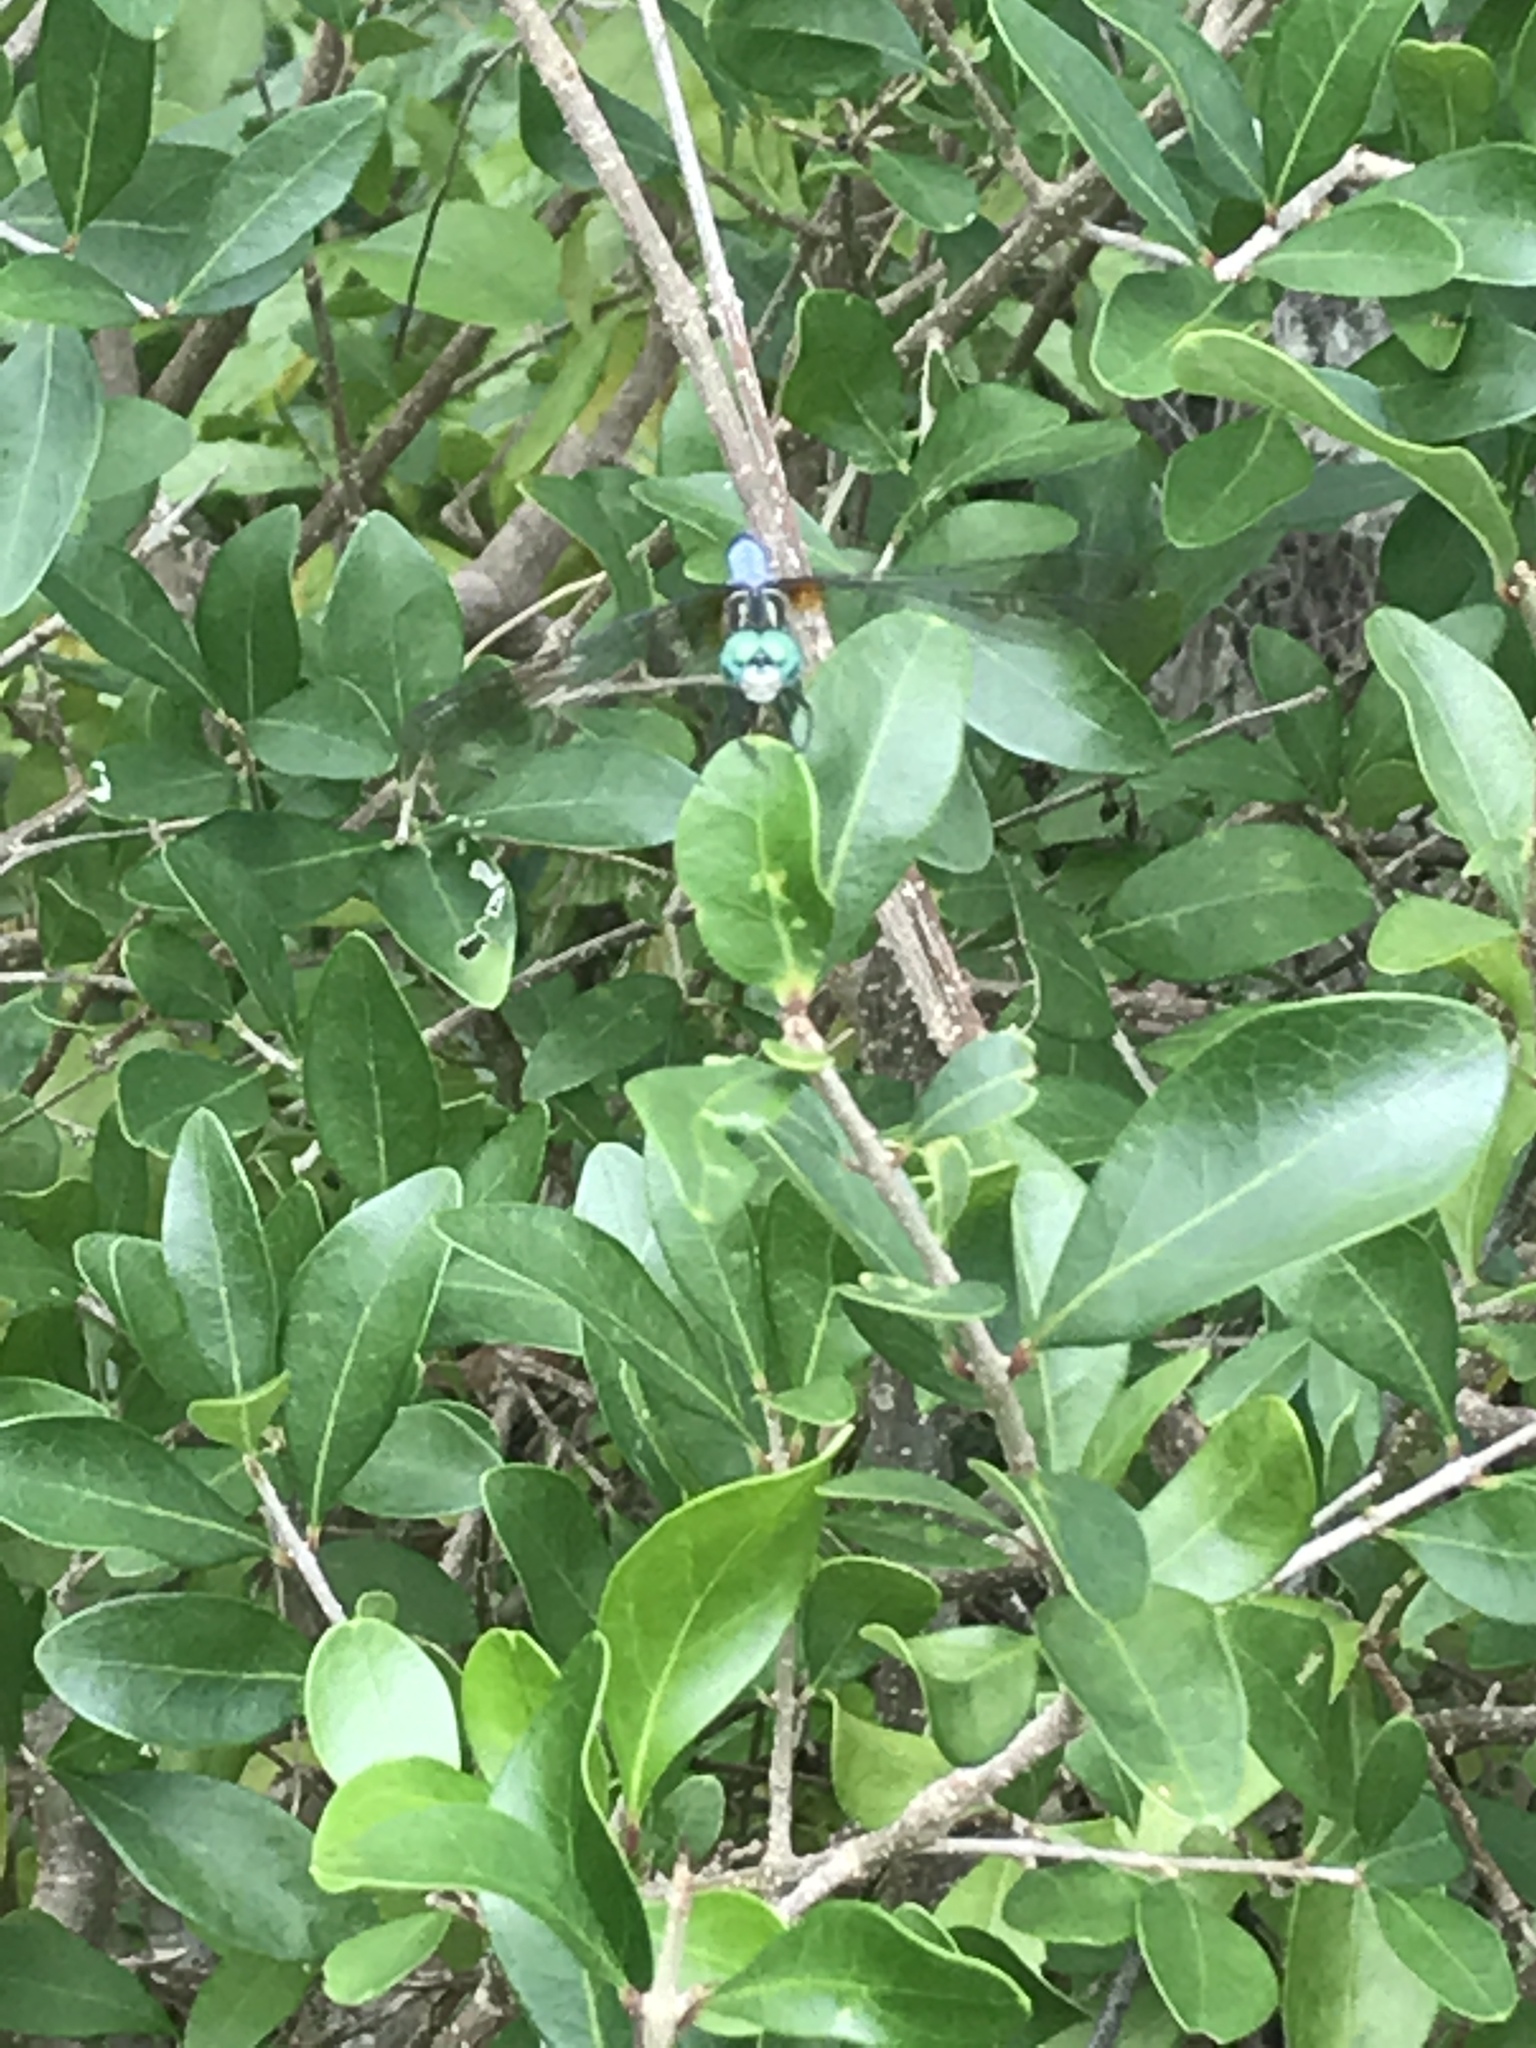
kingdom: Animalia
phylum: Arthropoda
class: Insecta
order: Odonata
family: Libellulidae
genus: Pachydiplax
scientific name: Pachydiplax longipennis
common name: Blue dasher
